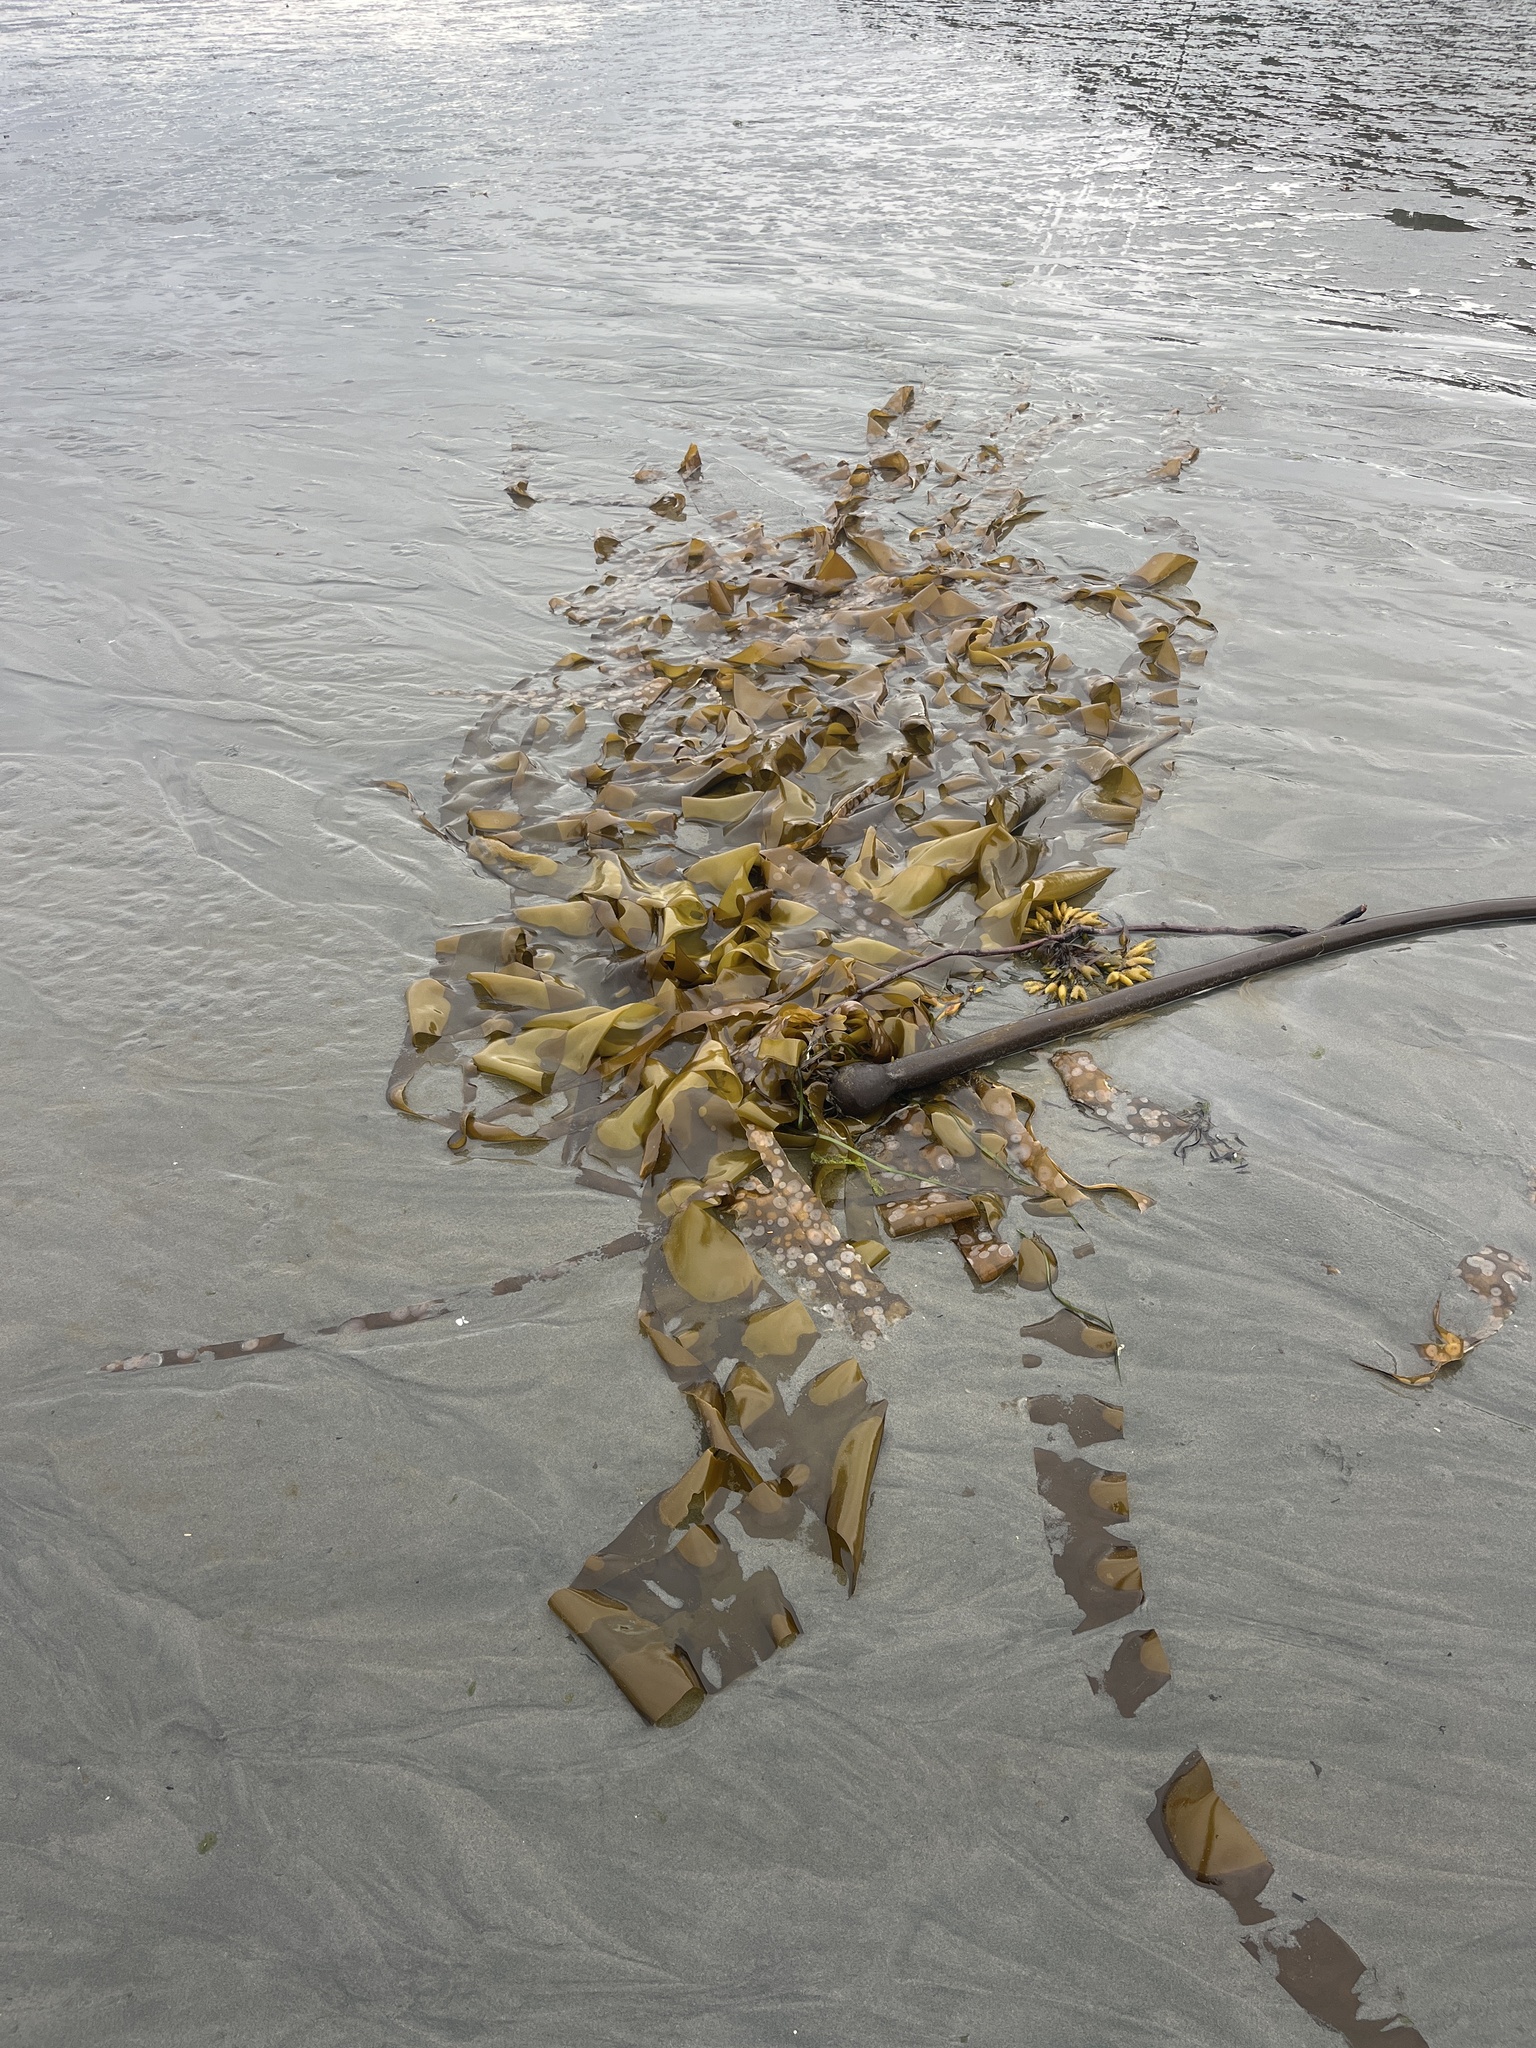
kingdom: Chromista
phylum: Ochrophyta
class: Phaeophyceae
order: Laminariales
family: Laminariaceae
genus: Nereocystis
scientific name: Nereocystis luetkeana
